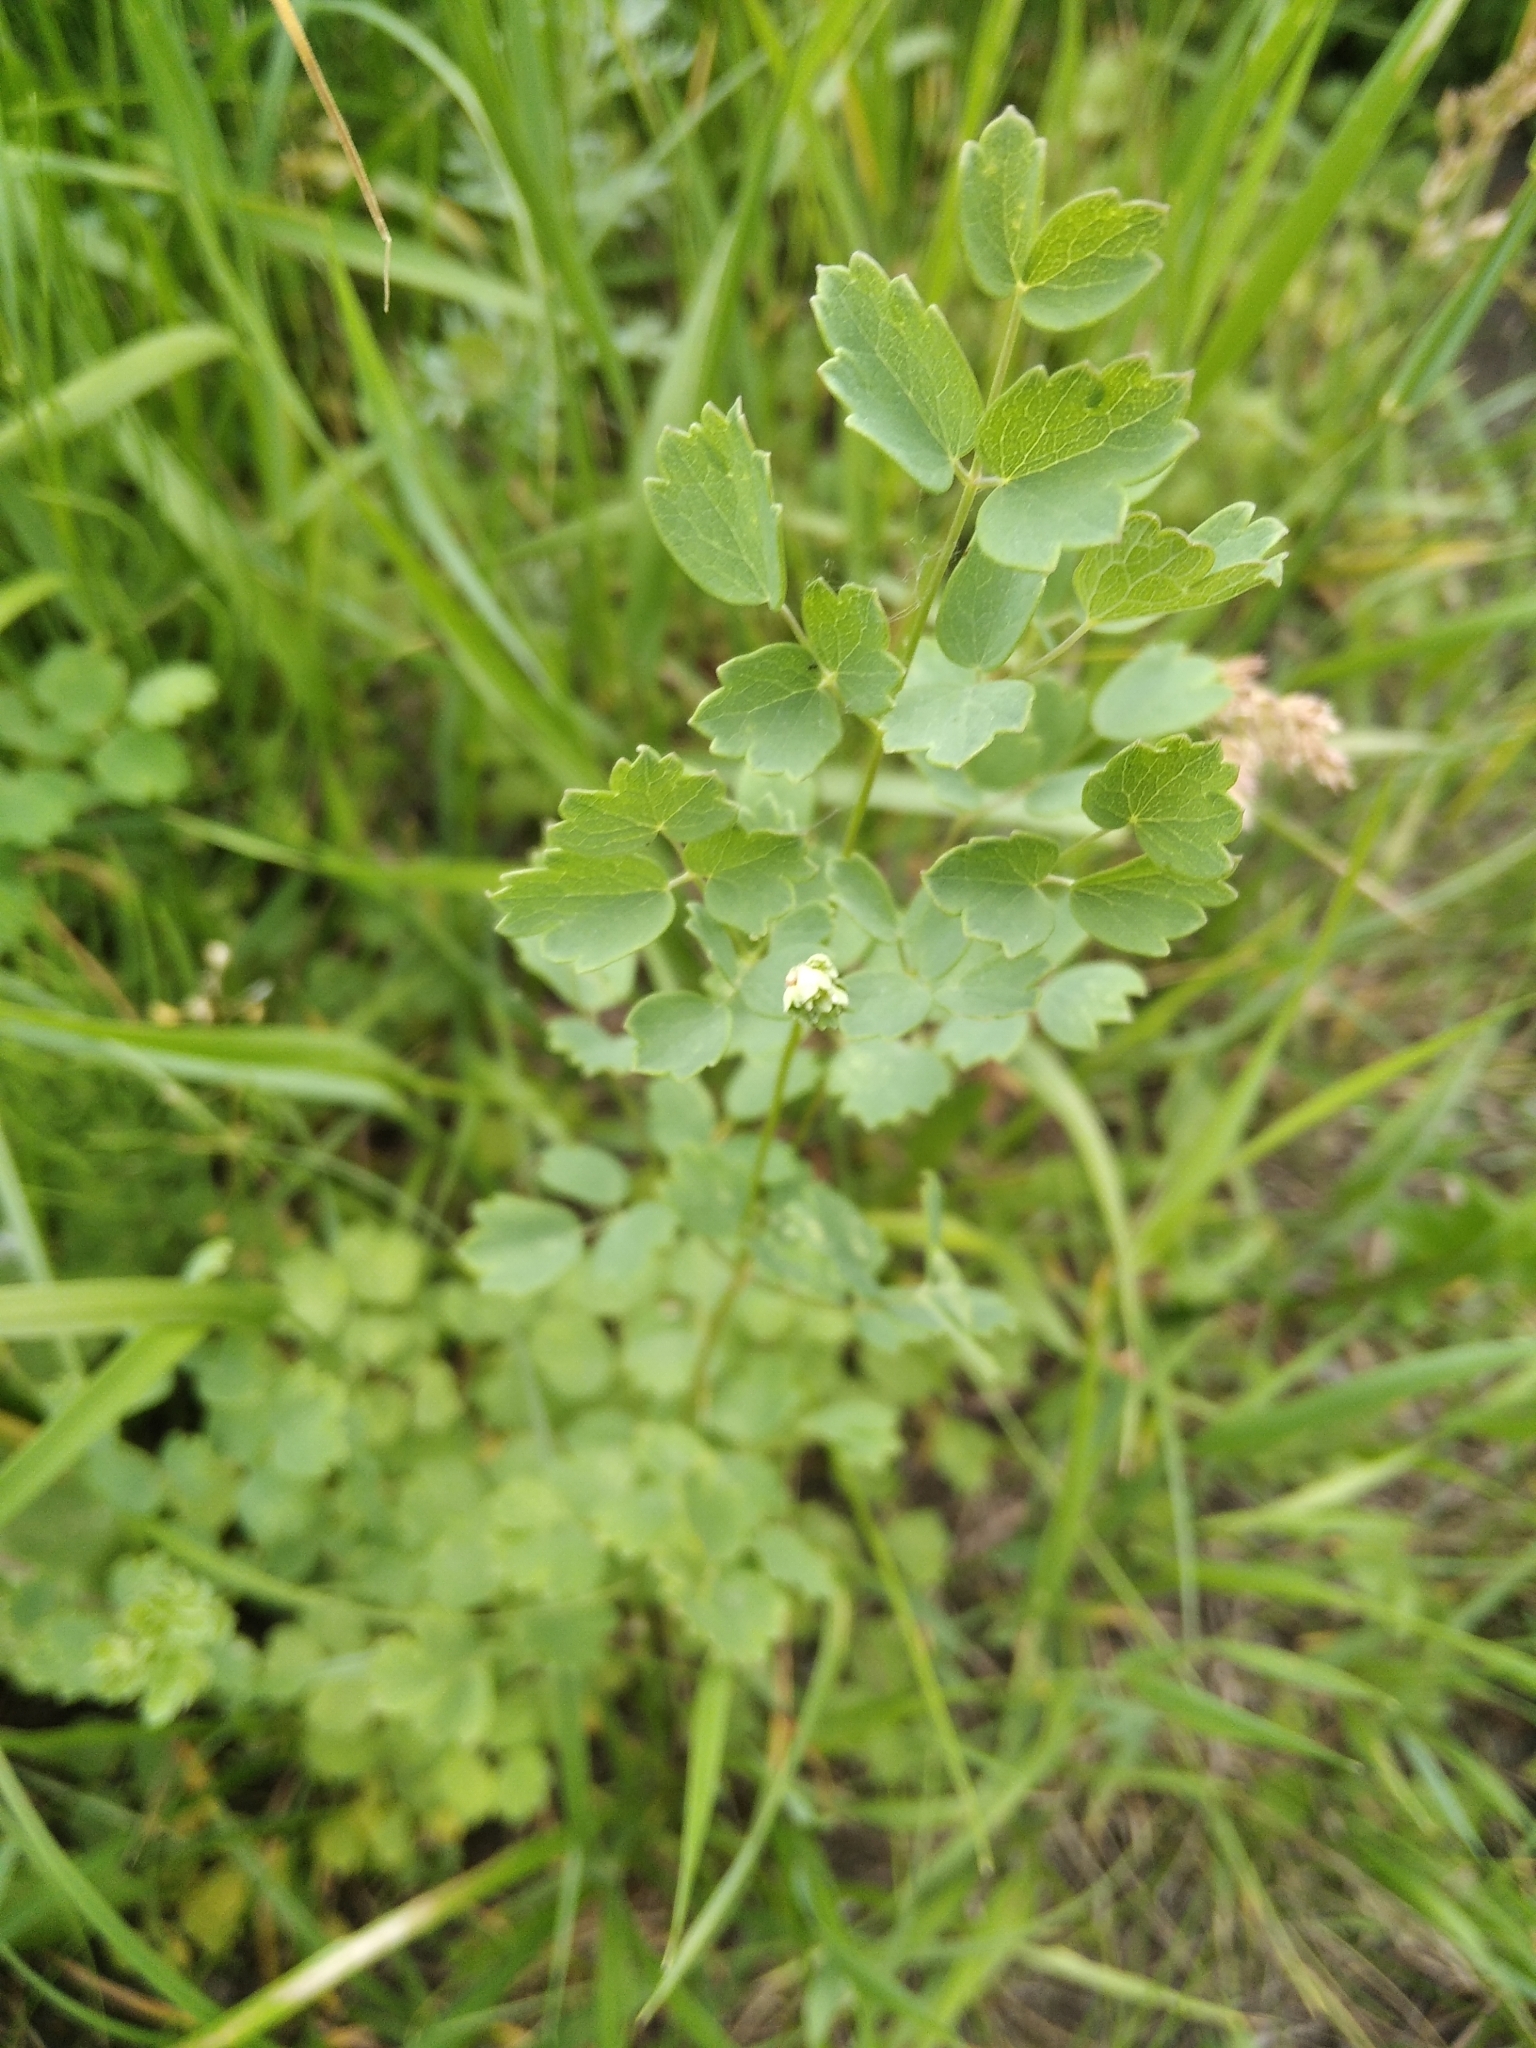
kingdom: Plantae
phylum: Tracheophyta
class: Magnoliopsida
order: Ranunculales
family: Ranunculaceae
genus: Thalictrum
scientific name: Thalictrum minus
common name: Lesser meadow-rue
